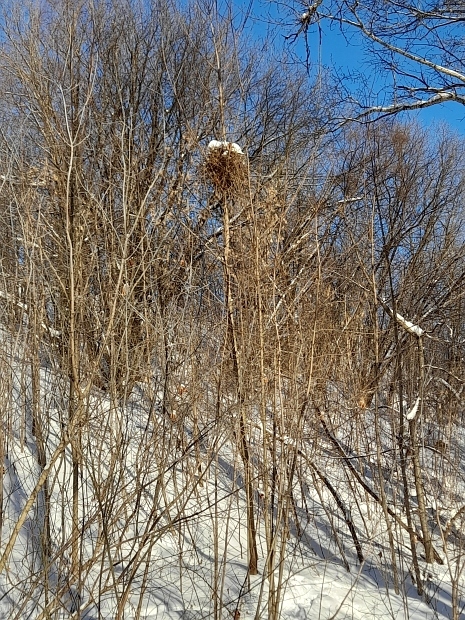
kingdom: Animalia
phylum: Chordata
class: Aves
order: Passeriformes
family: Corvidae
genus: Pica
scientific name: Pica pica
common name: Eurasian magpie
